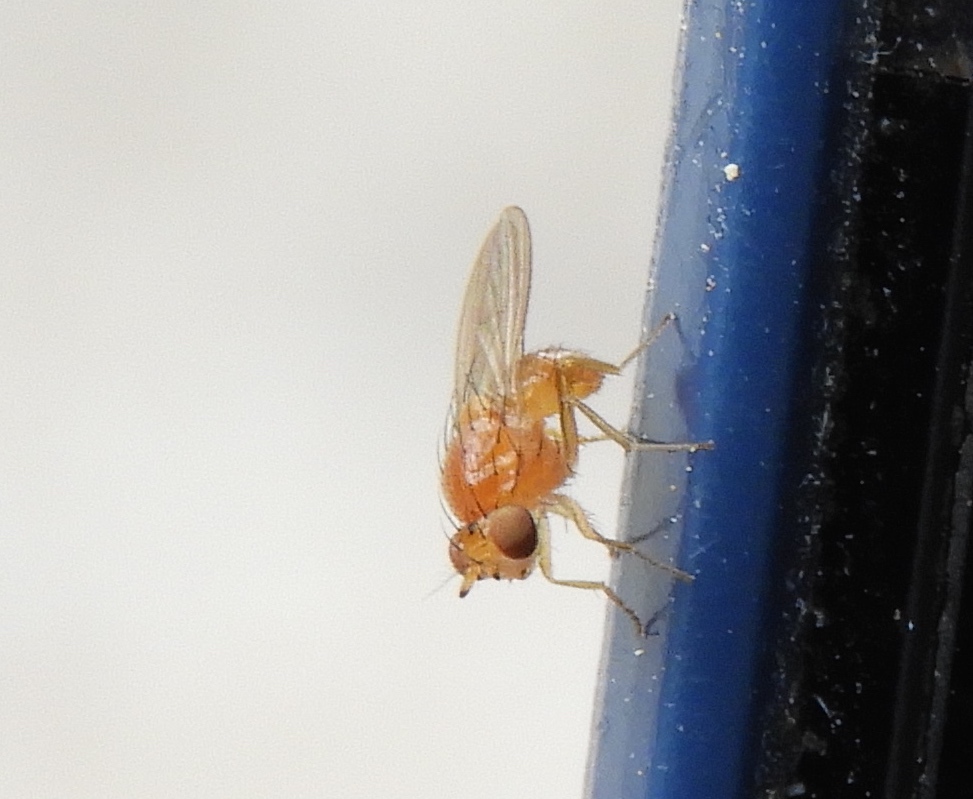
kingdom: Animalia
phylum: Arthropoda
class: Insecta
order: Diptera
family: Lauxaniidae
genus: Camptoprosopella
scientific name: Camptoprosopella latipunctata
